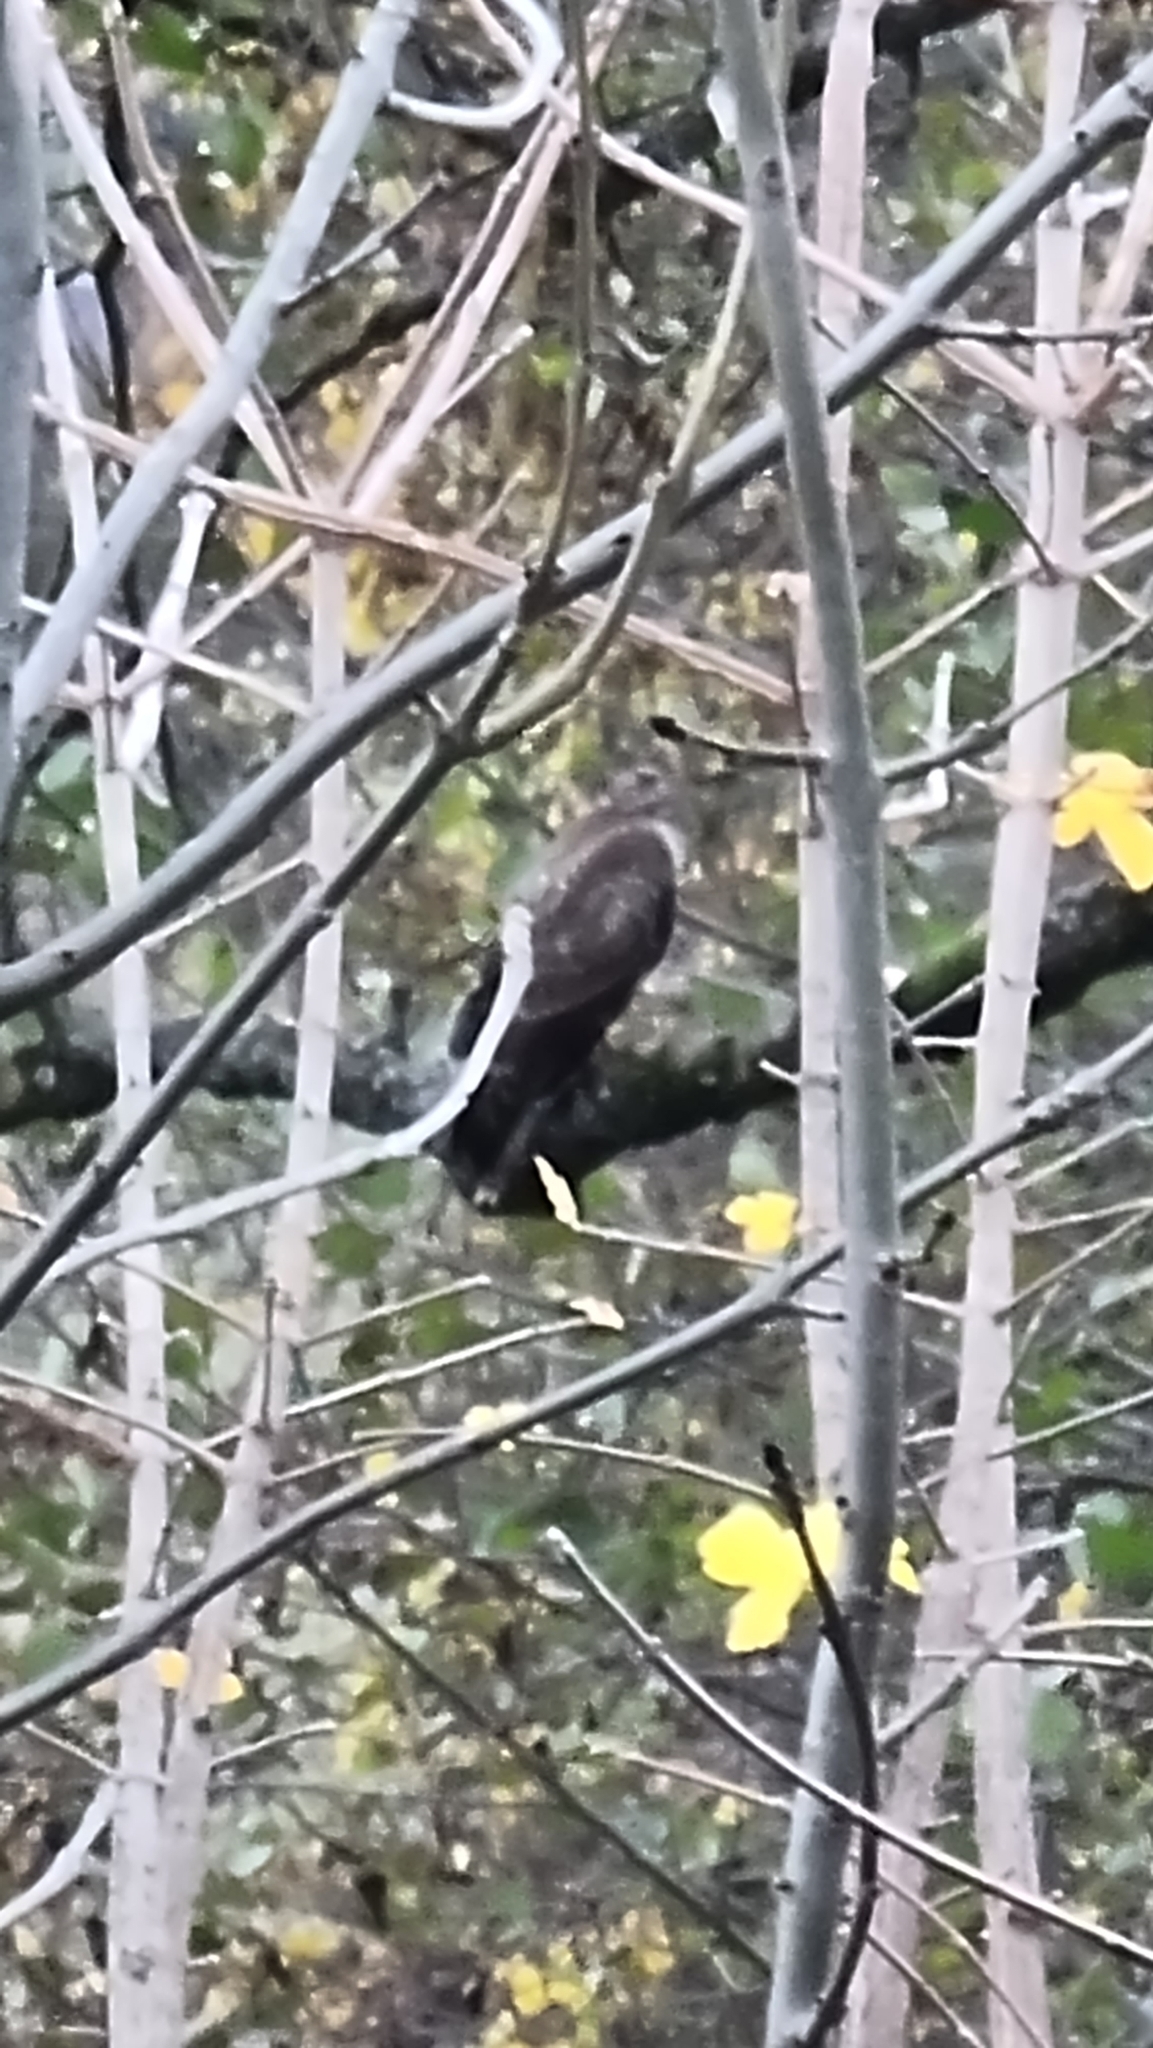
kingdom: Animalia
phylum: Chordata
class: Aves
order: Accipitriformes
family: Accipitridae
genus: Accipiter
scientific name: Accipiter nisus
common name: Eurasian sparrowhawk
